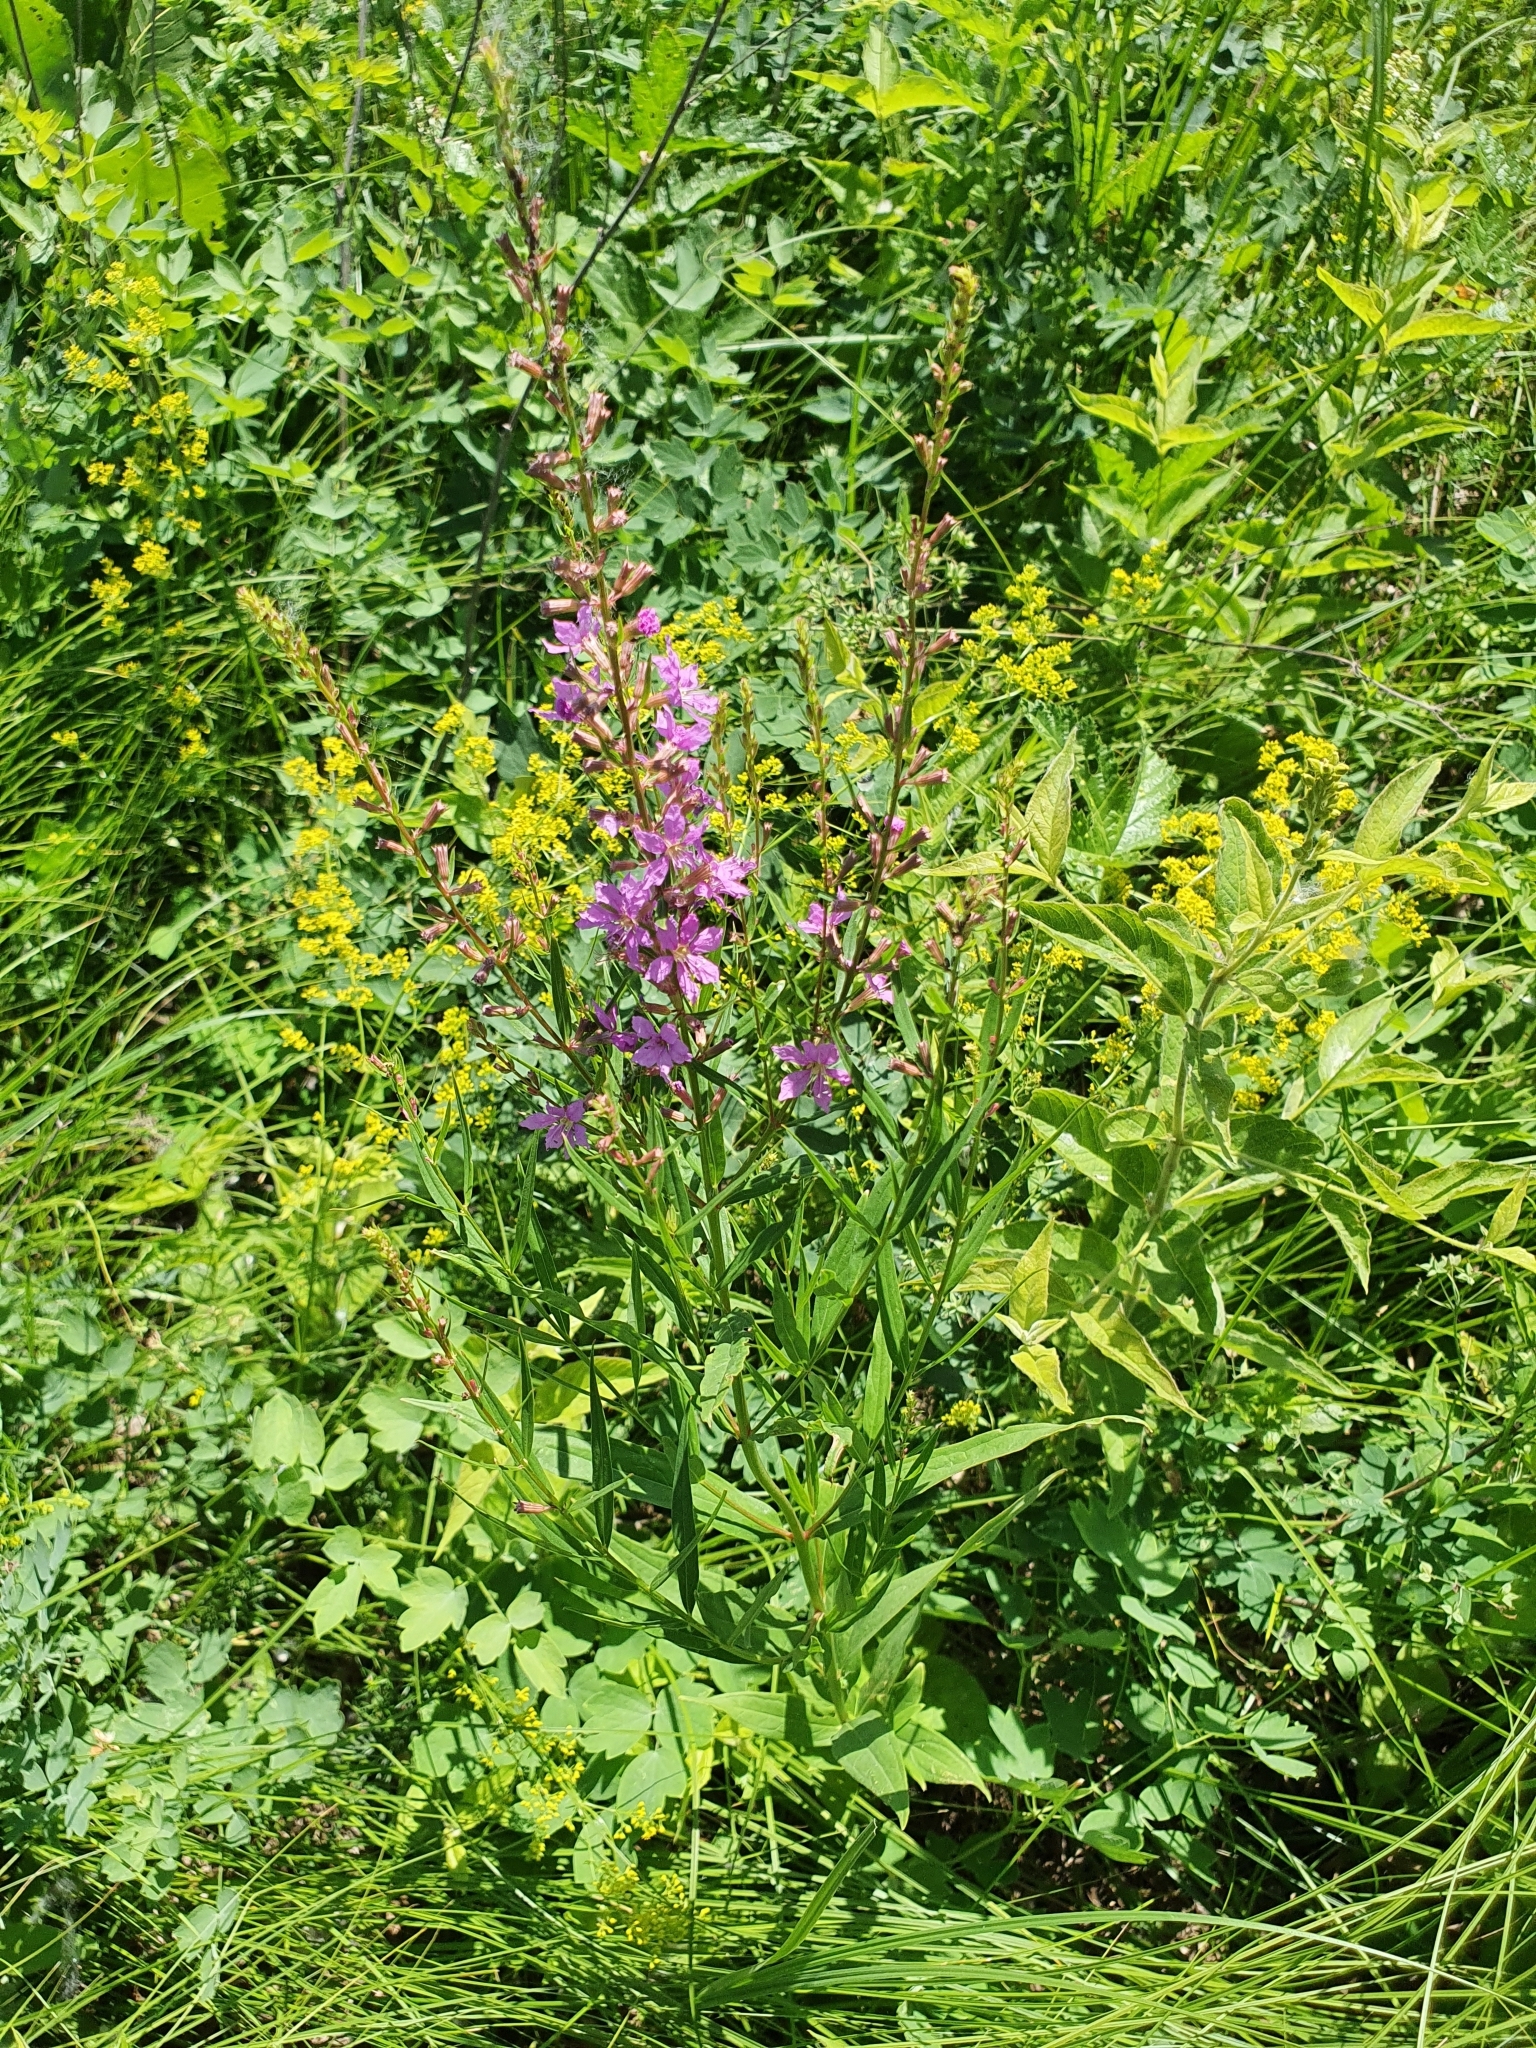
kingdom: Plantae
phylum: Tracheophyta
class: Magnoliopsida
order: Myrtales
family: Lythraceae
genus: Lythrum
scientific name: Lythrum virgatum
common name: European wand loosestrife
